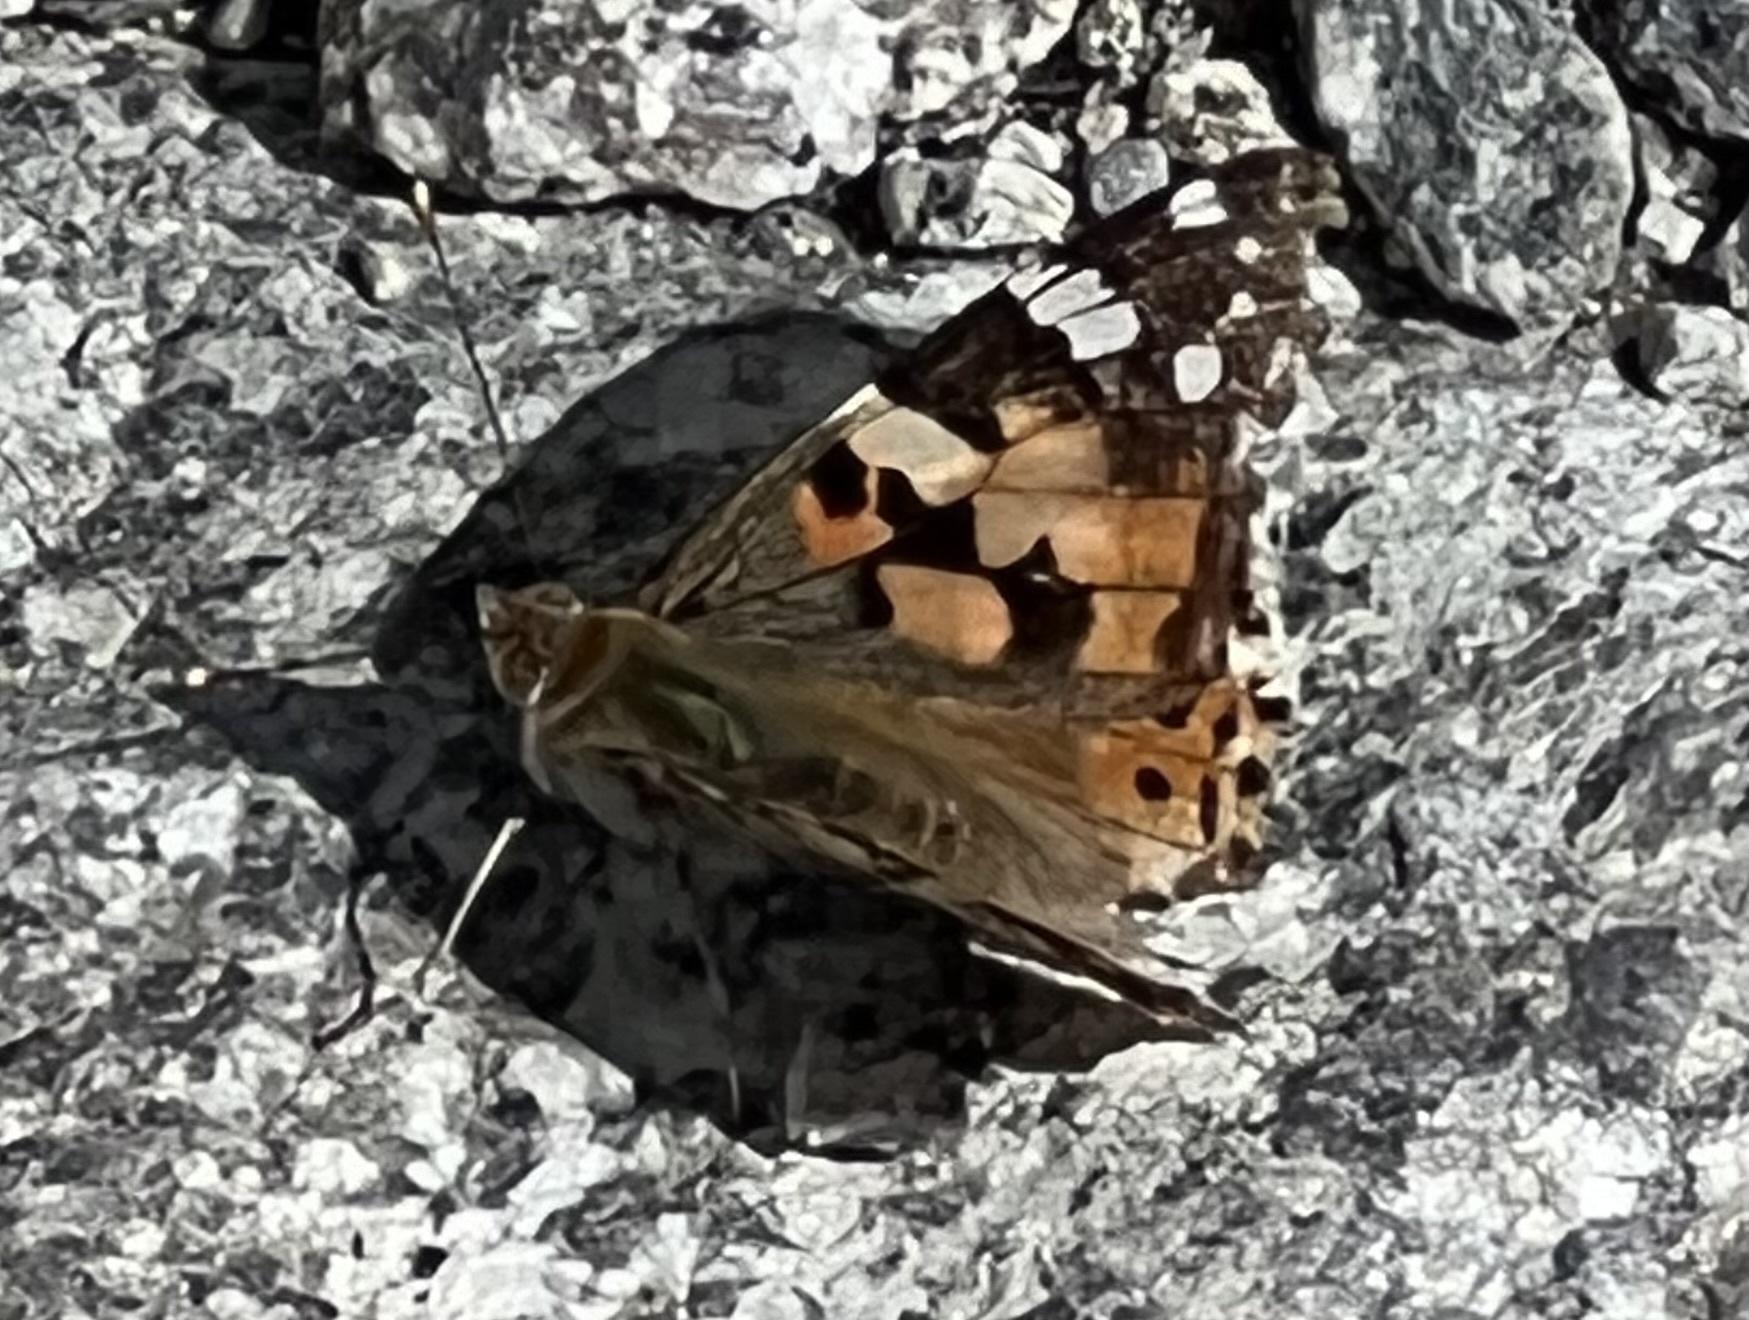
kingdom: Animalia
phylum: Arthropoda
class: Insecta
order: Lepidoptera
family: Nymphalidae
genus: Vanessa
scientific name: Vanessa cardui
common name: Painted lady
